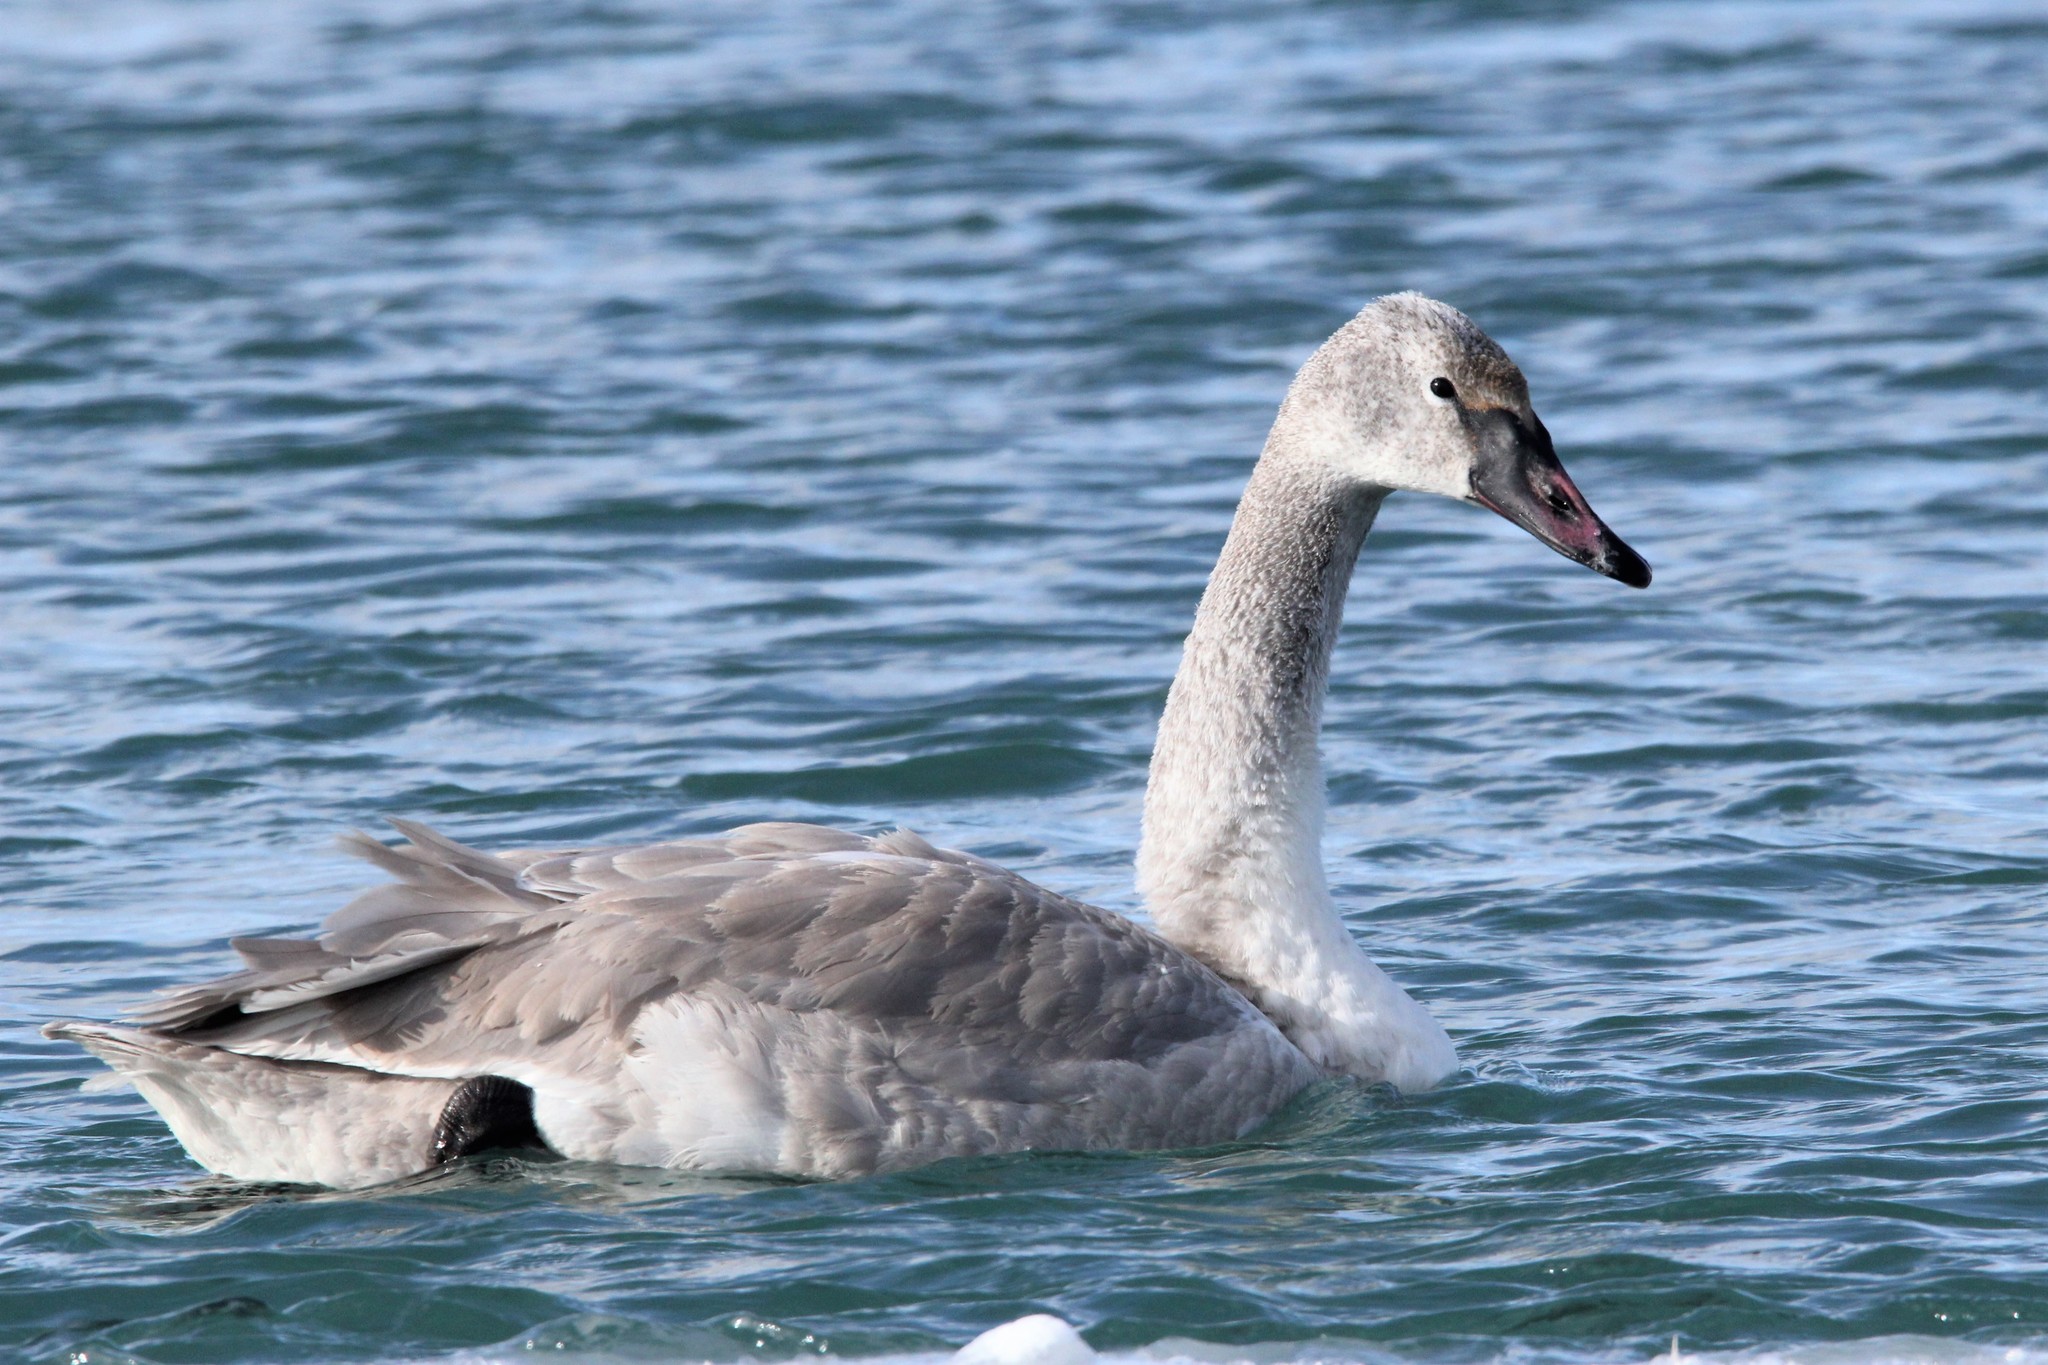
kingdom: Animalia
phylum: Chordata
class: Aves
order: Anseriformes
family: Anatidae
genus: Cygnus
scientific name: Cygnus buccinator
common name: Trumpeter swan
